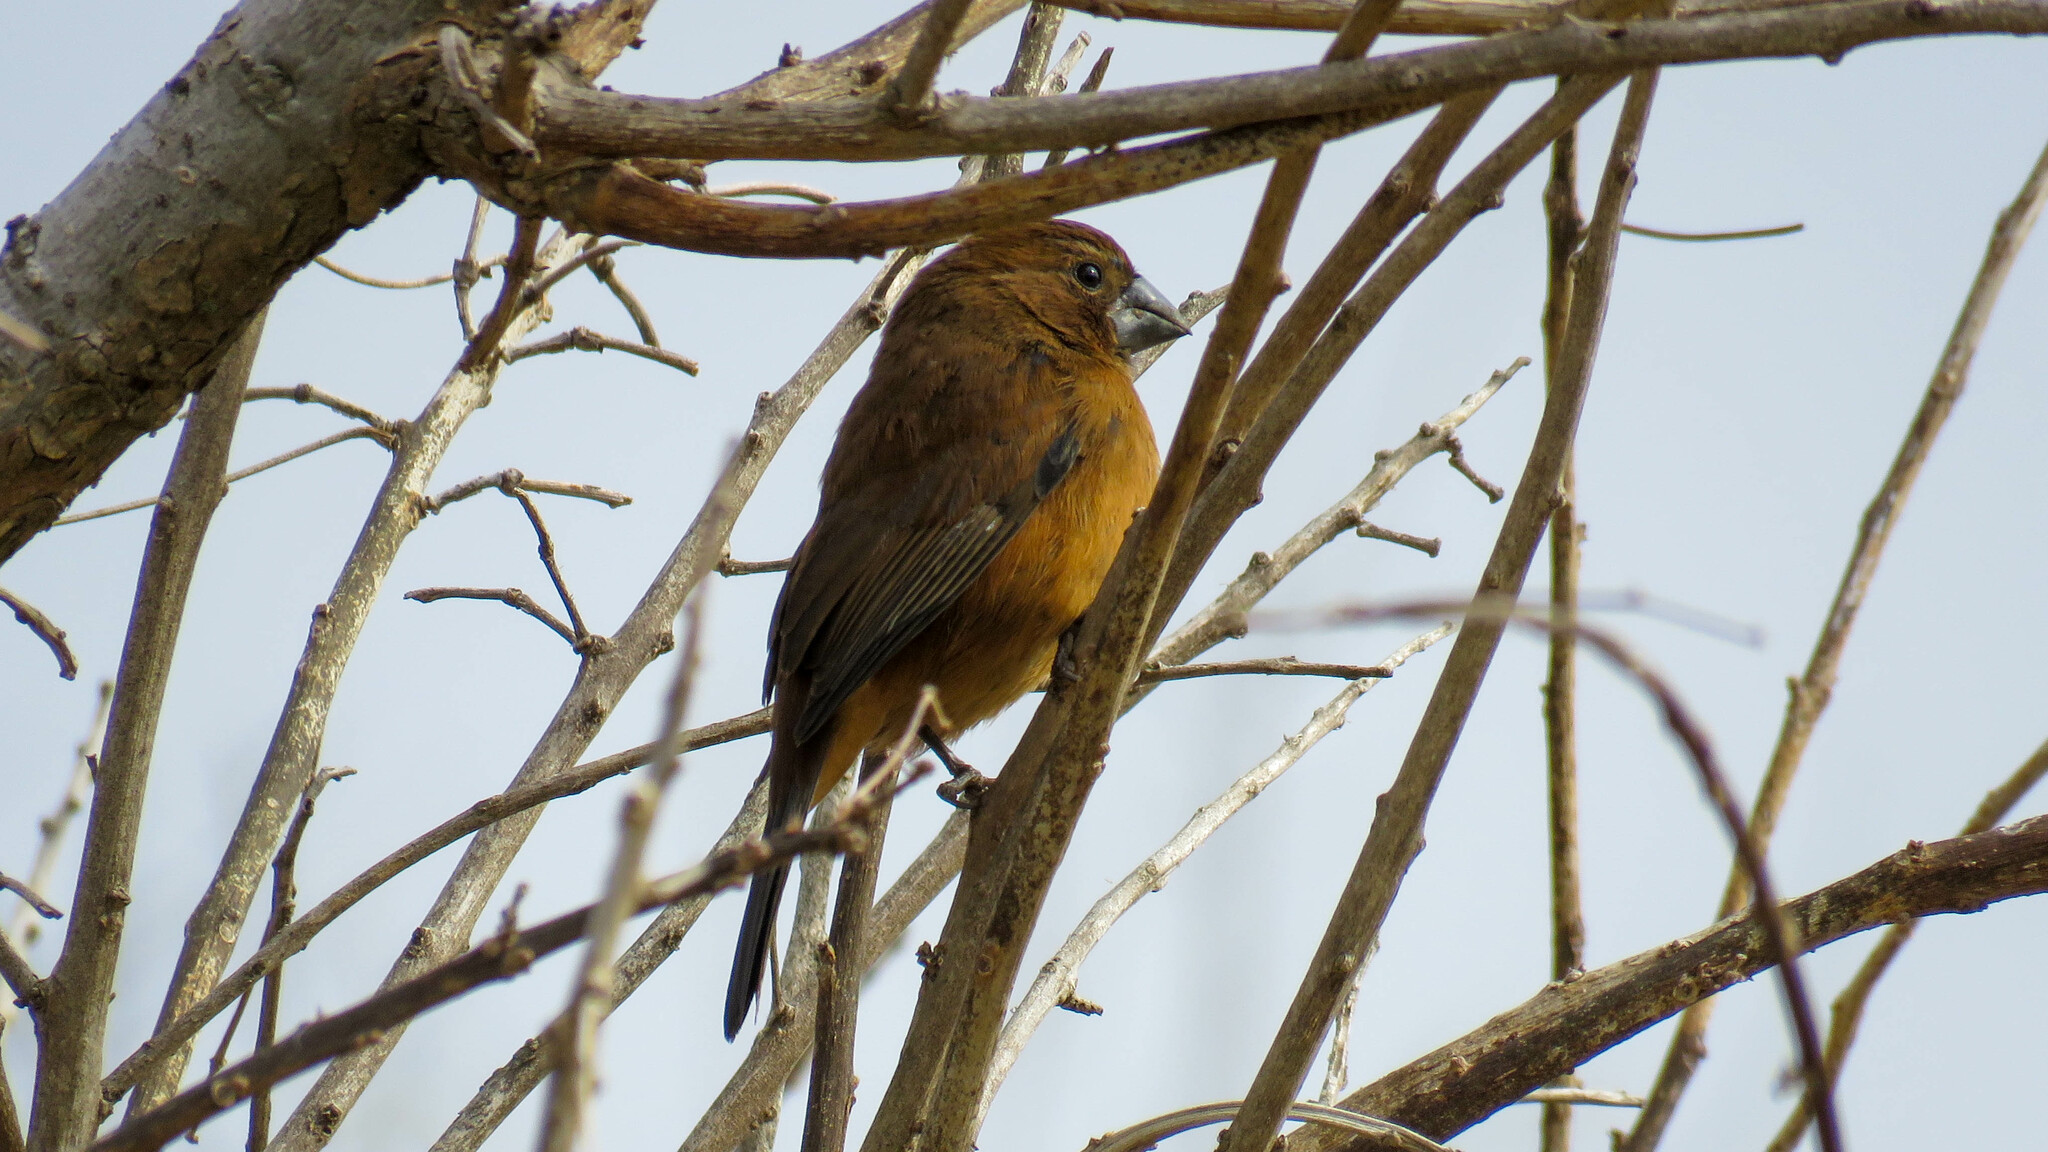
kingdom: Animalia
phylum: Chordata
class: Aves
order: Passeriformes
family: Cardinalidae
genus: Cyanoloxia
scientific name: Cyanoloxia brissonii
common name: Ultramarine grosbeak
